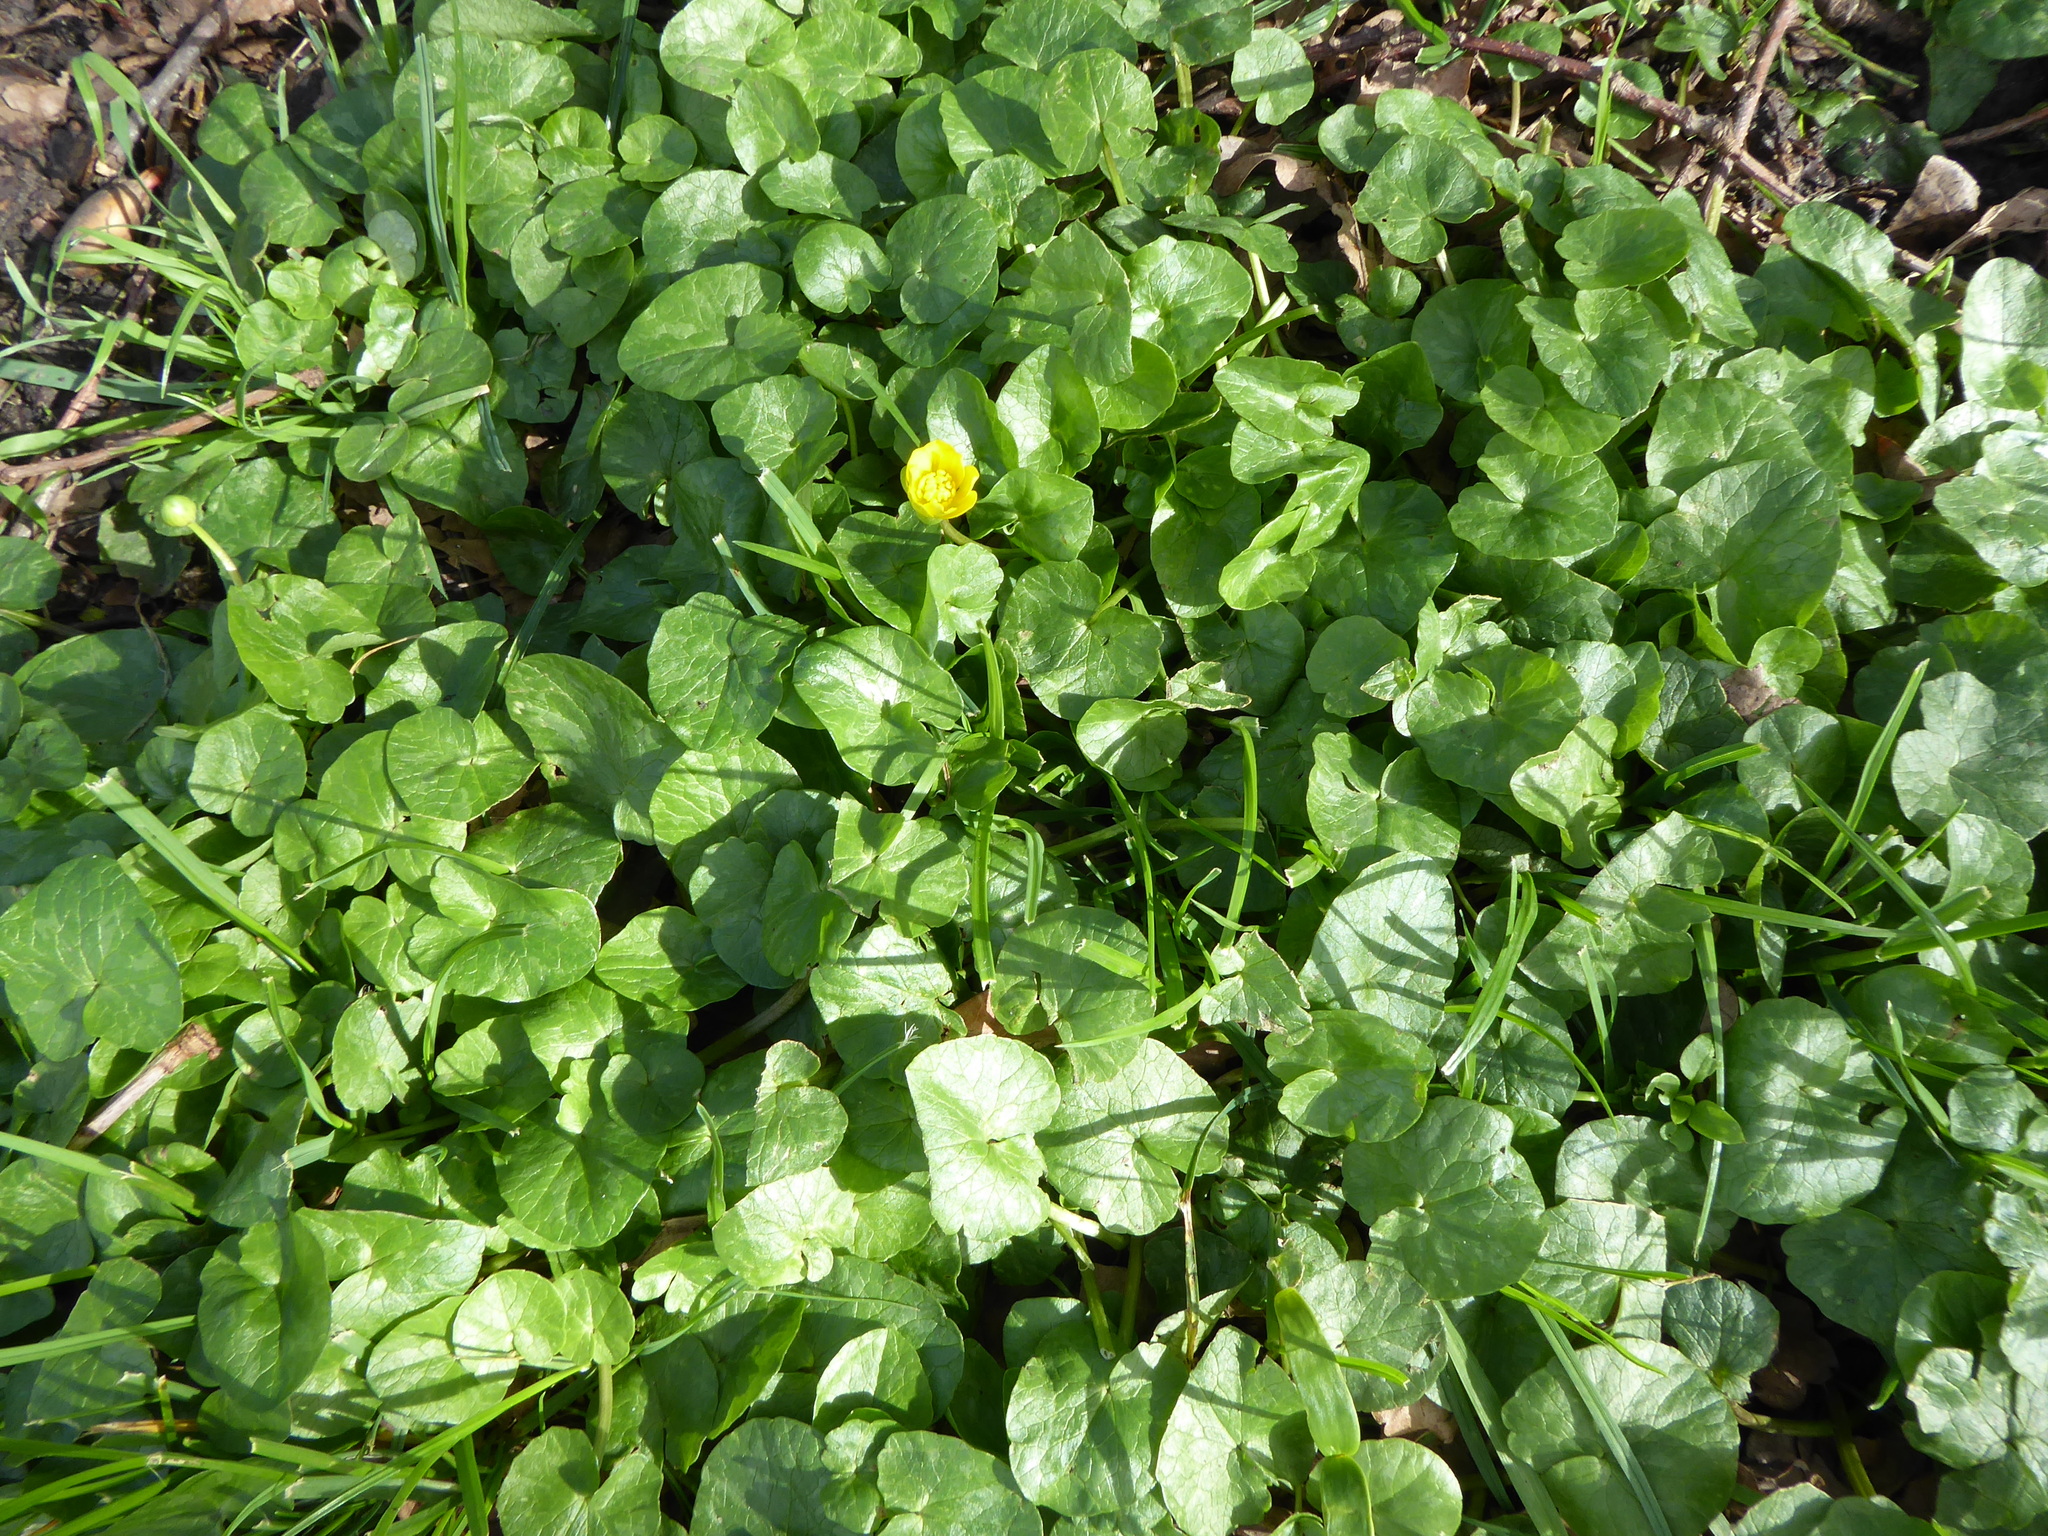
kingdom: Plantae
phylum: Tracheophyta
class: Magnoliopsida
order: Ranunculales
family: Ranunculaceae
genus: Ficaria
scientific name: Ficaria verna
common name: Lesser celandine
